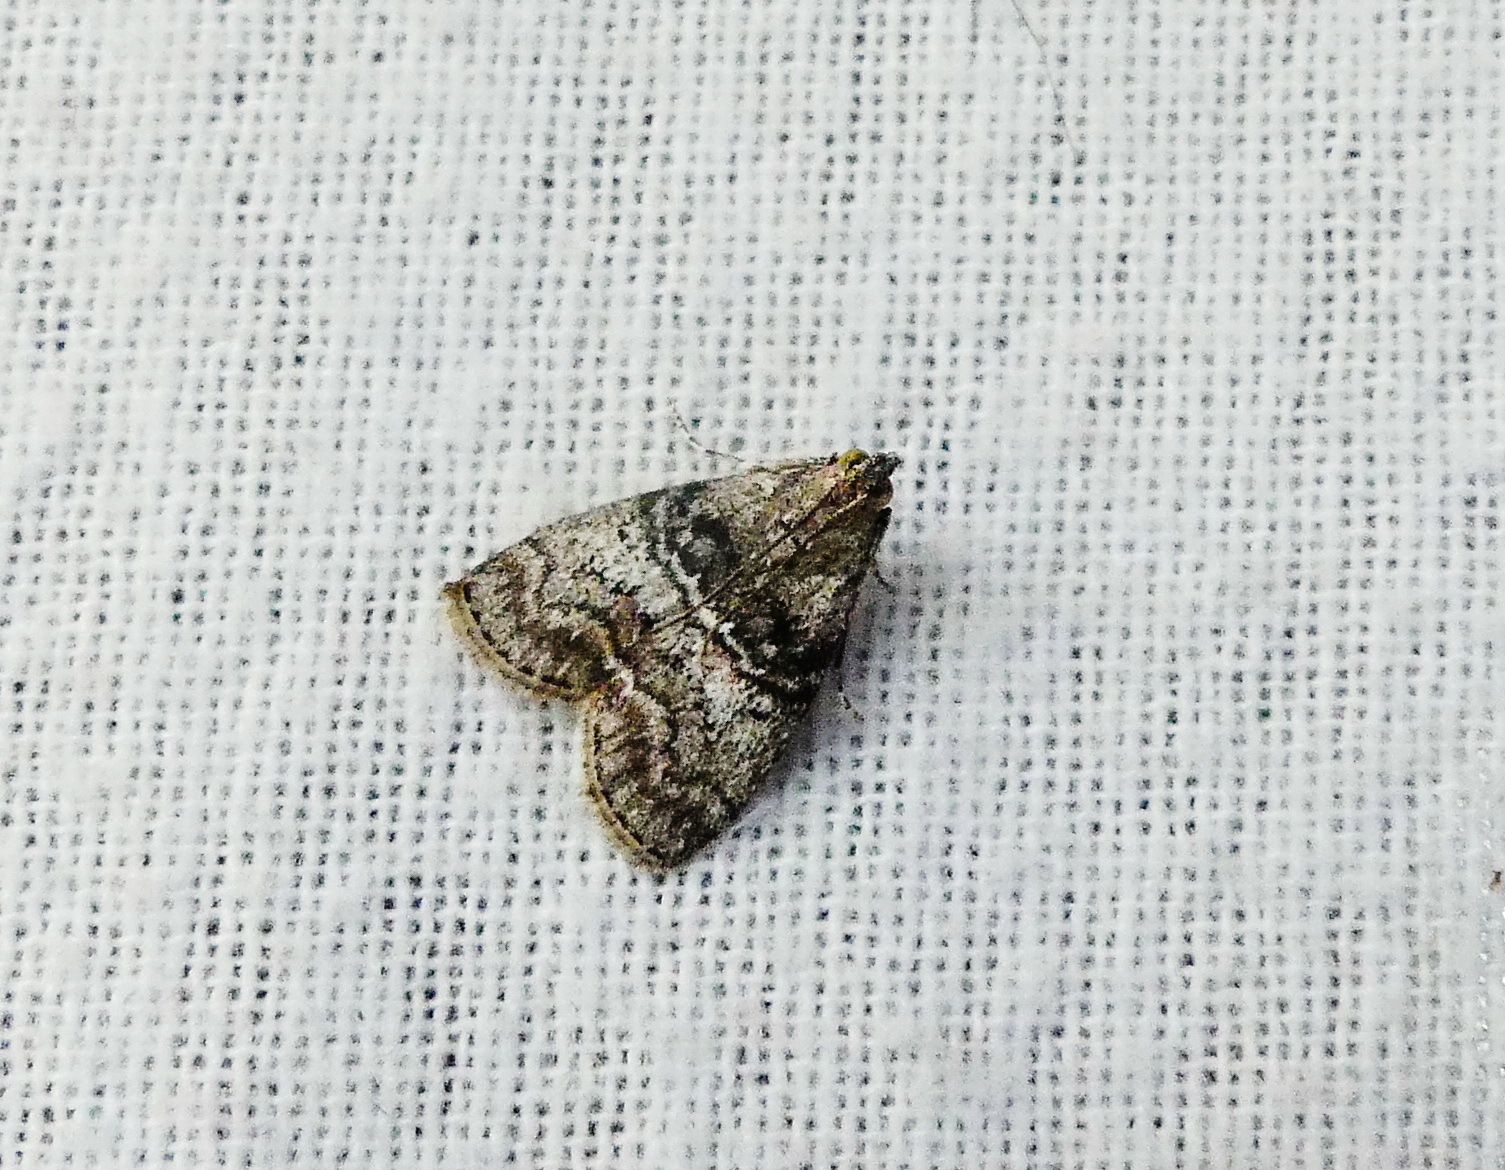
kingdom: Animalia
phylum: Arthropoda
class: Insecta
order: Lepidoptera
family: Pyralidae
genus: Pococera
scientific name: Pococera asperatella
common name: Maple webworm moth
